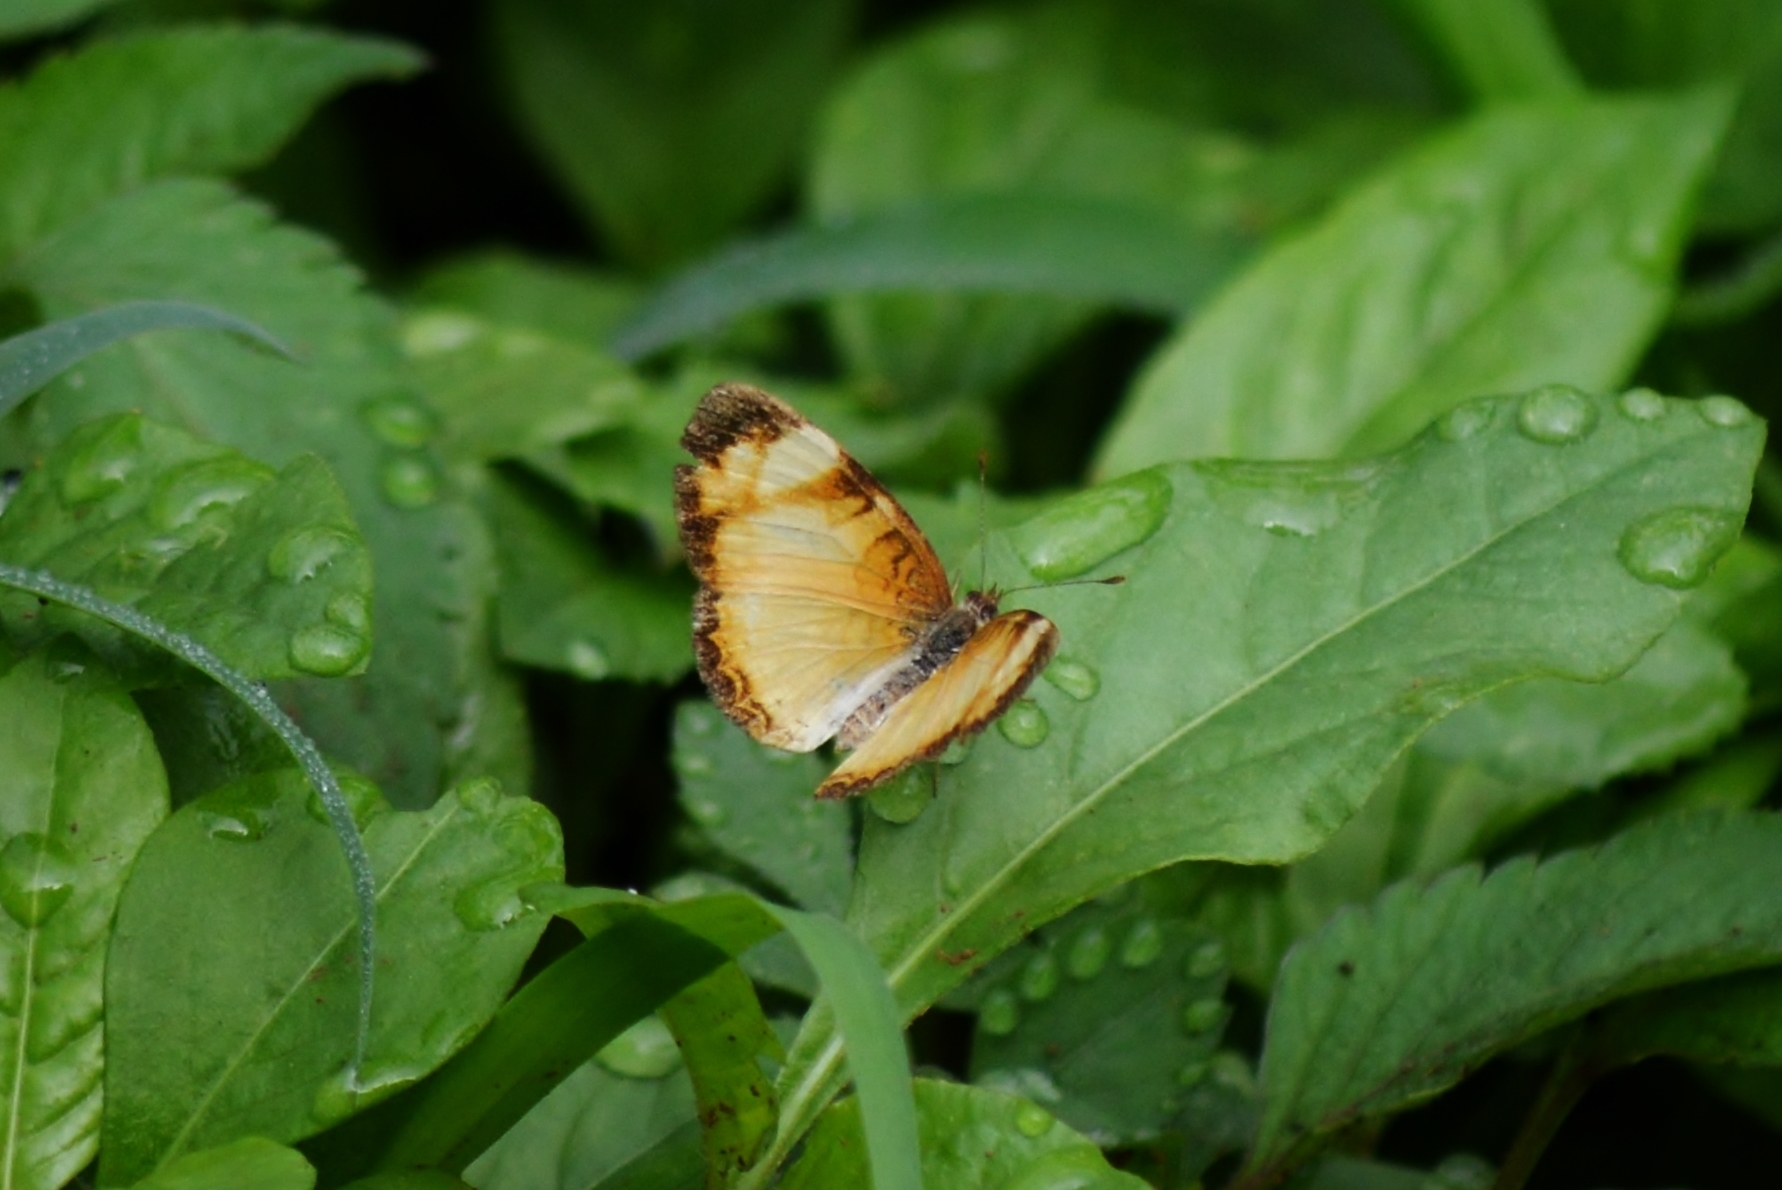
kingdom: Animalia
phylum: Arthropoda
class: Insecta
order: Lepidoptera
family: Nymphalidae
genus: Tegosa
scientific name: Tegosa claudina
